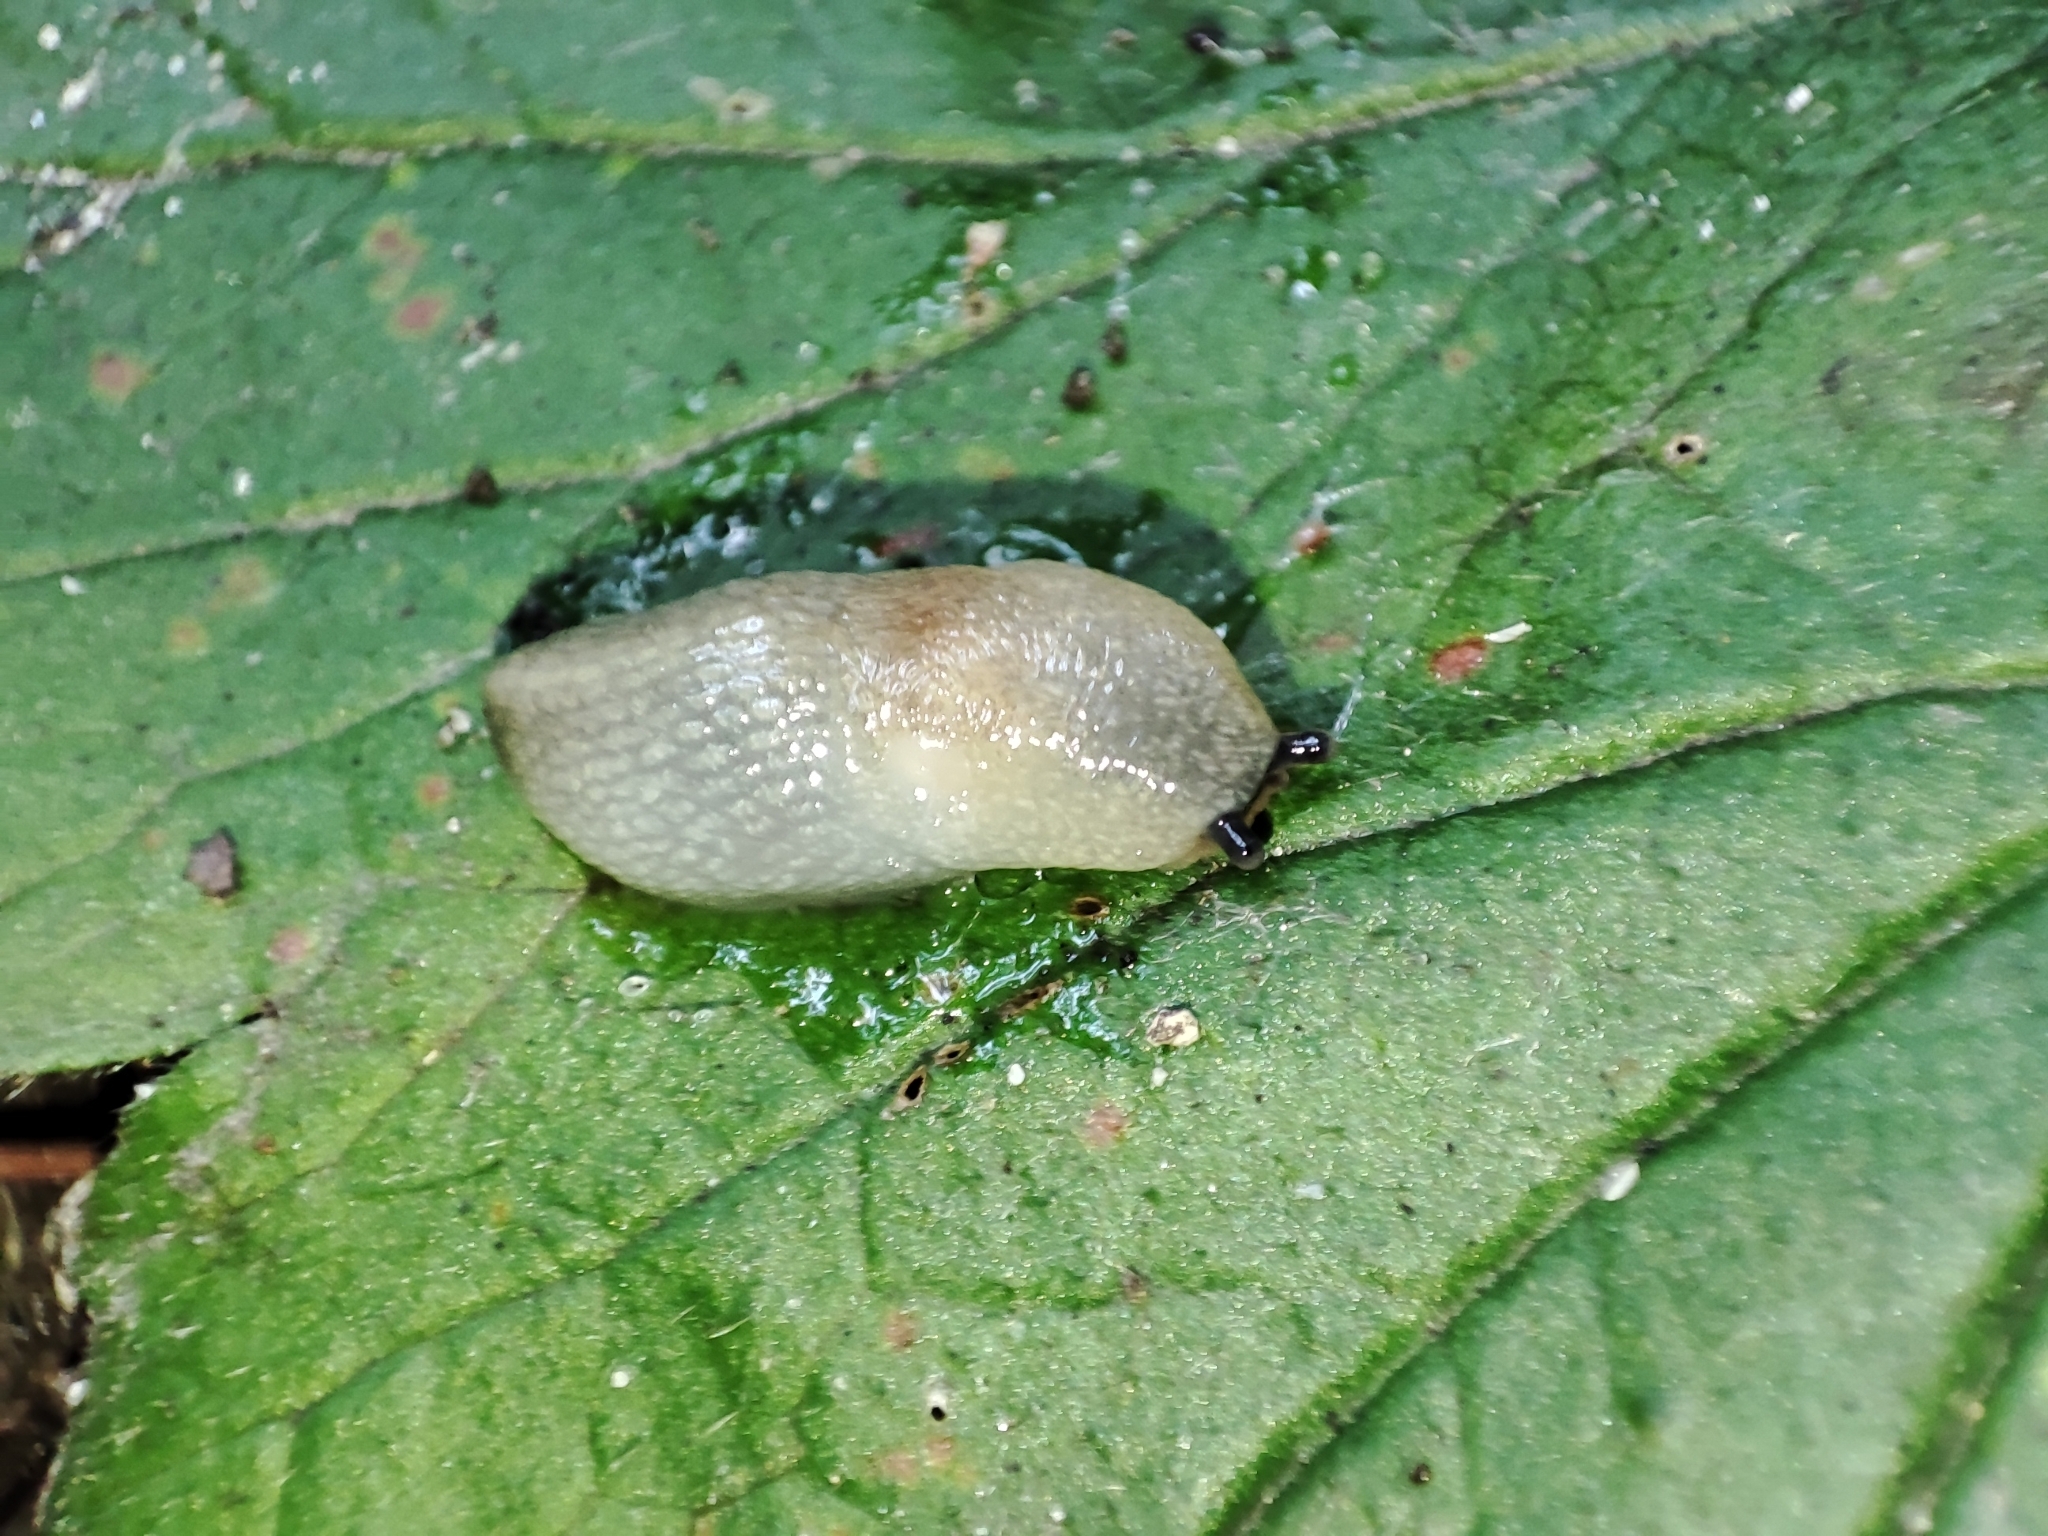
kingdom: Animalia
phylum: Mollusca
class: Gastropoda
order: Stylommatophora
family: Agriolimacidae
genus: Krynickillus
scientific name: Krynickillus melanocephalus
